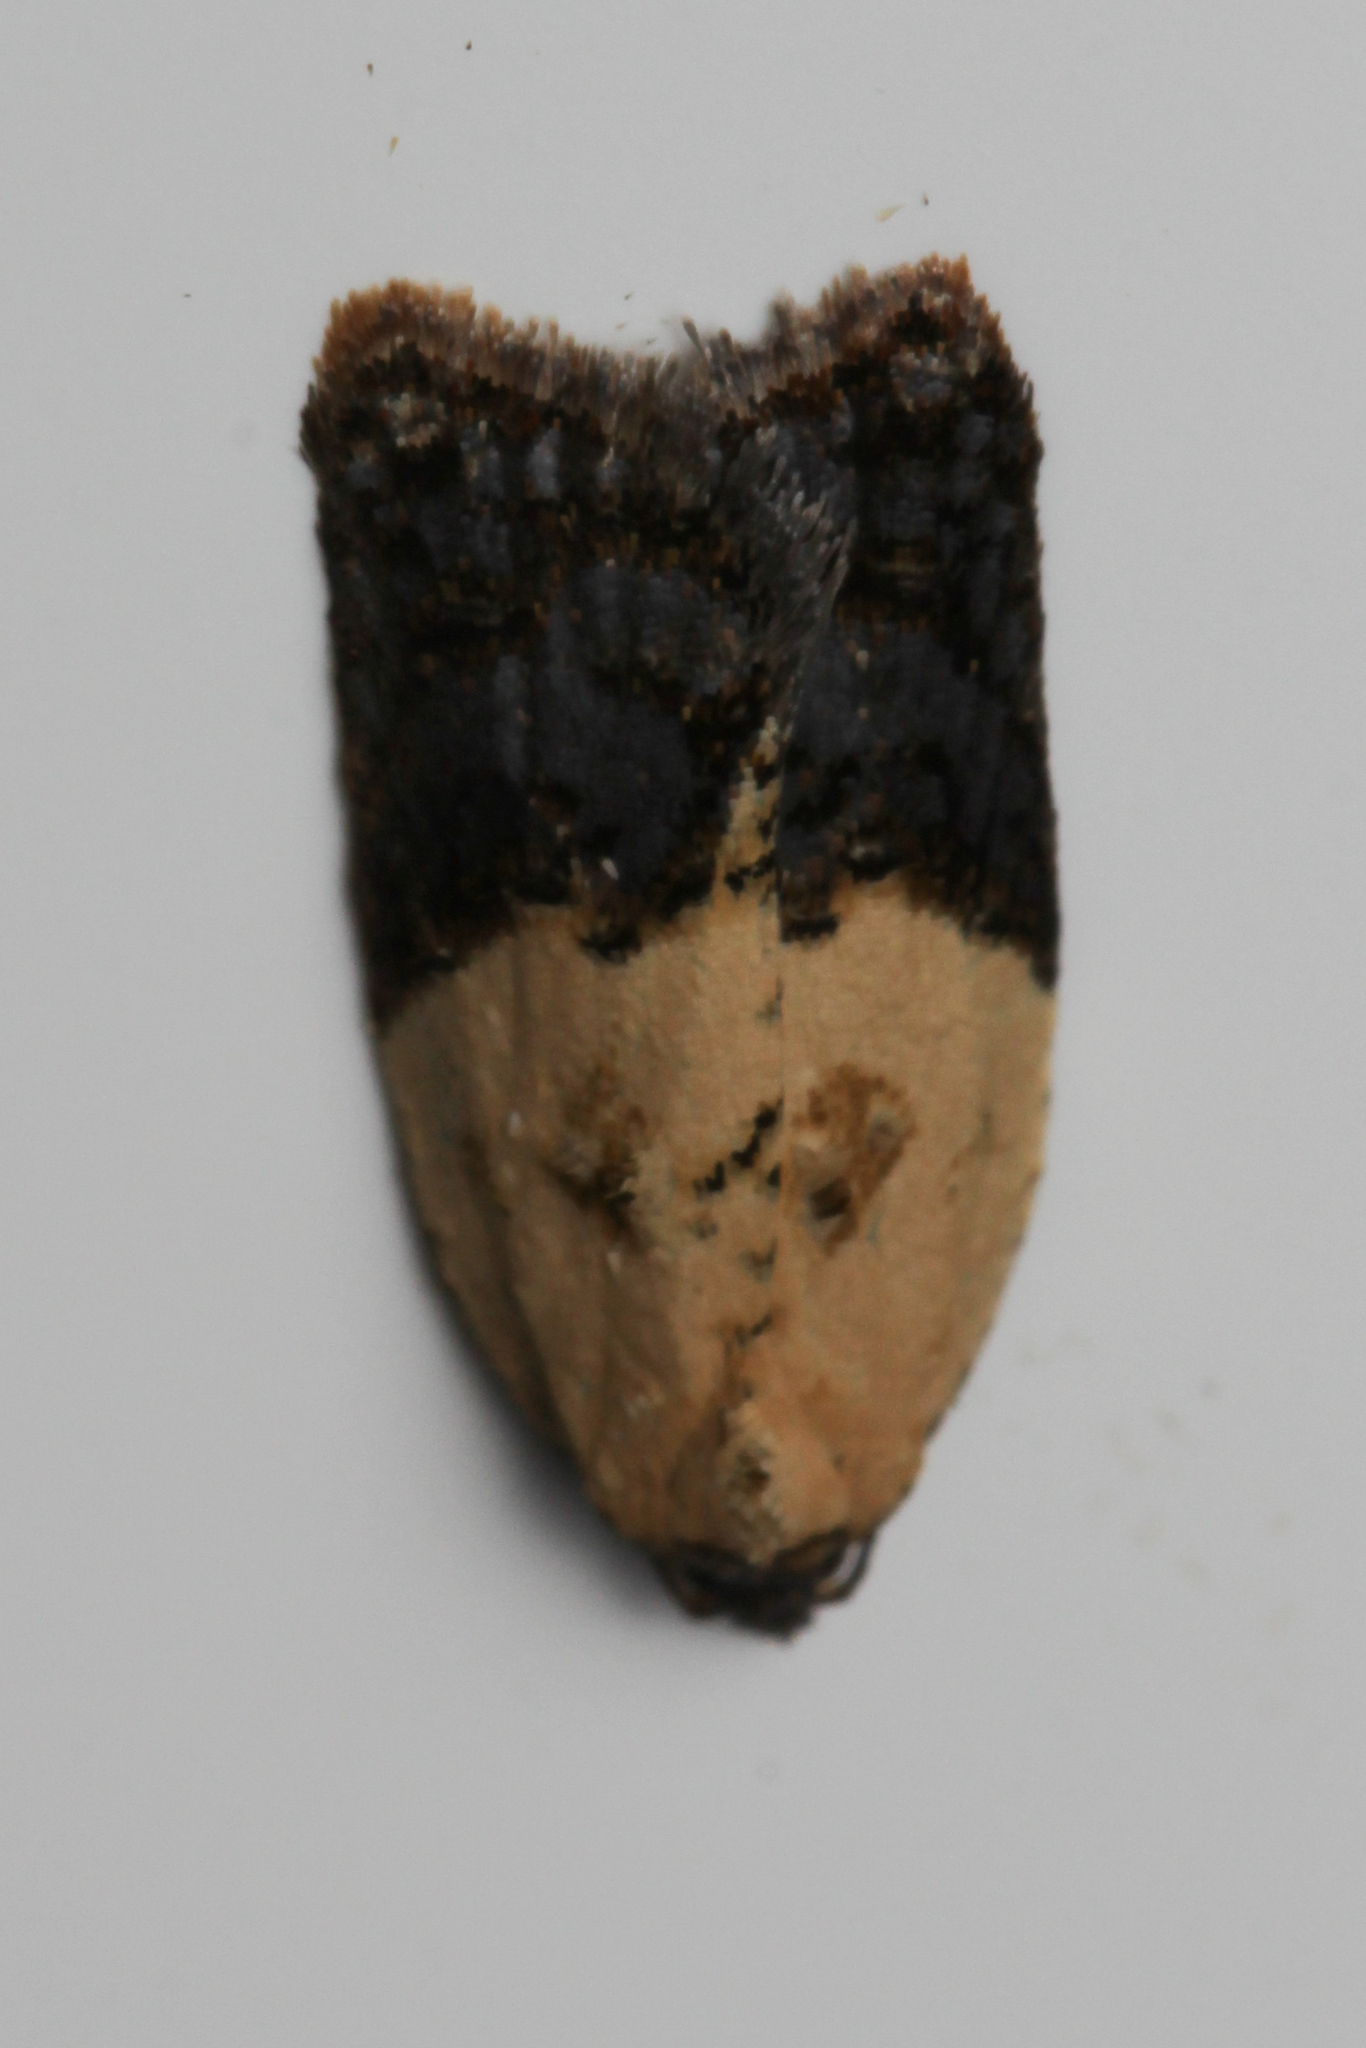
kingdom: Animalia
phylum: Arthropoda
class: Insecta
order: Lepidoptera
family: Tortricidae
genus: Acleris
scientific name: Acleris variegana
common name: Garden rose tortrix
